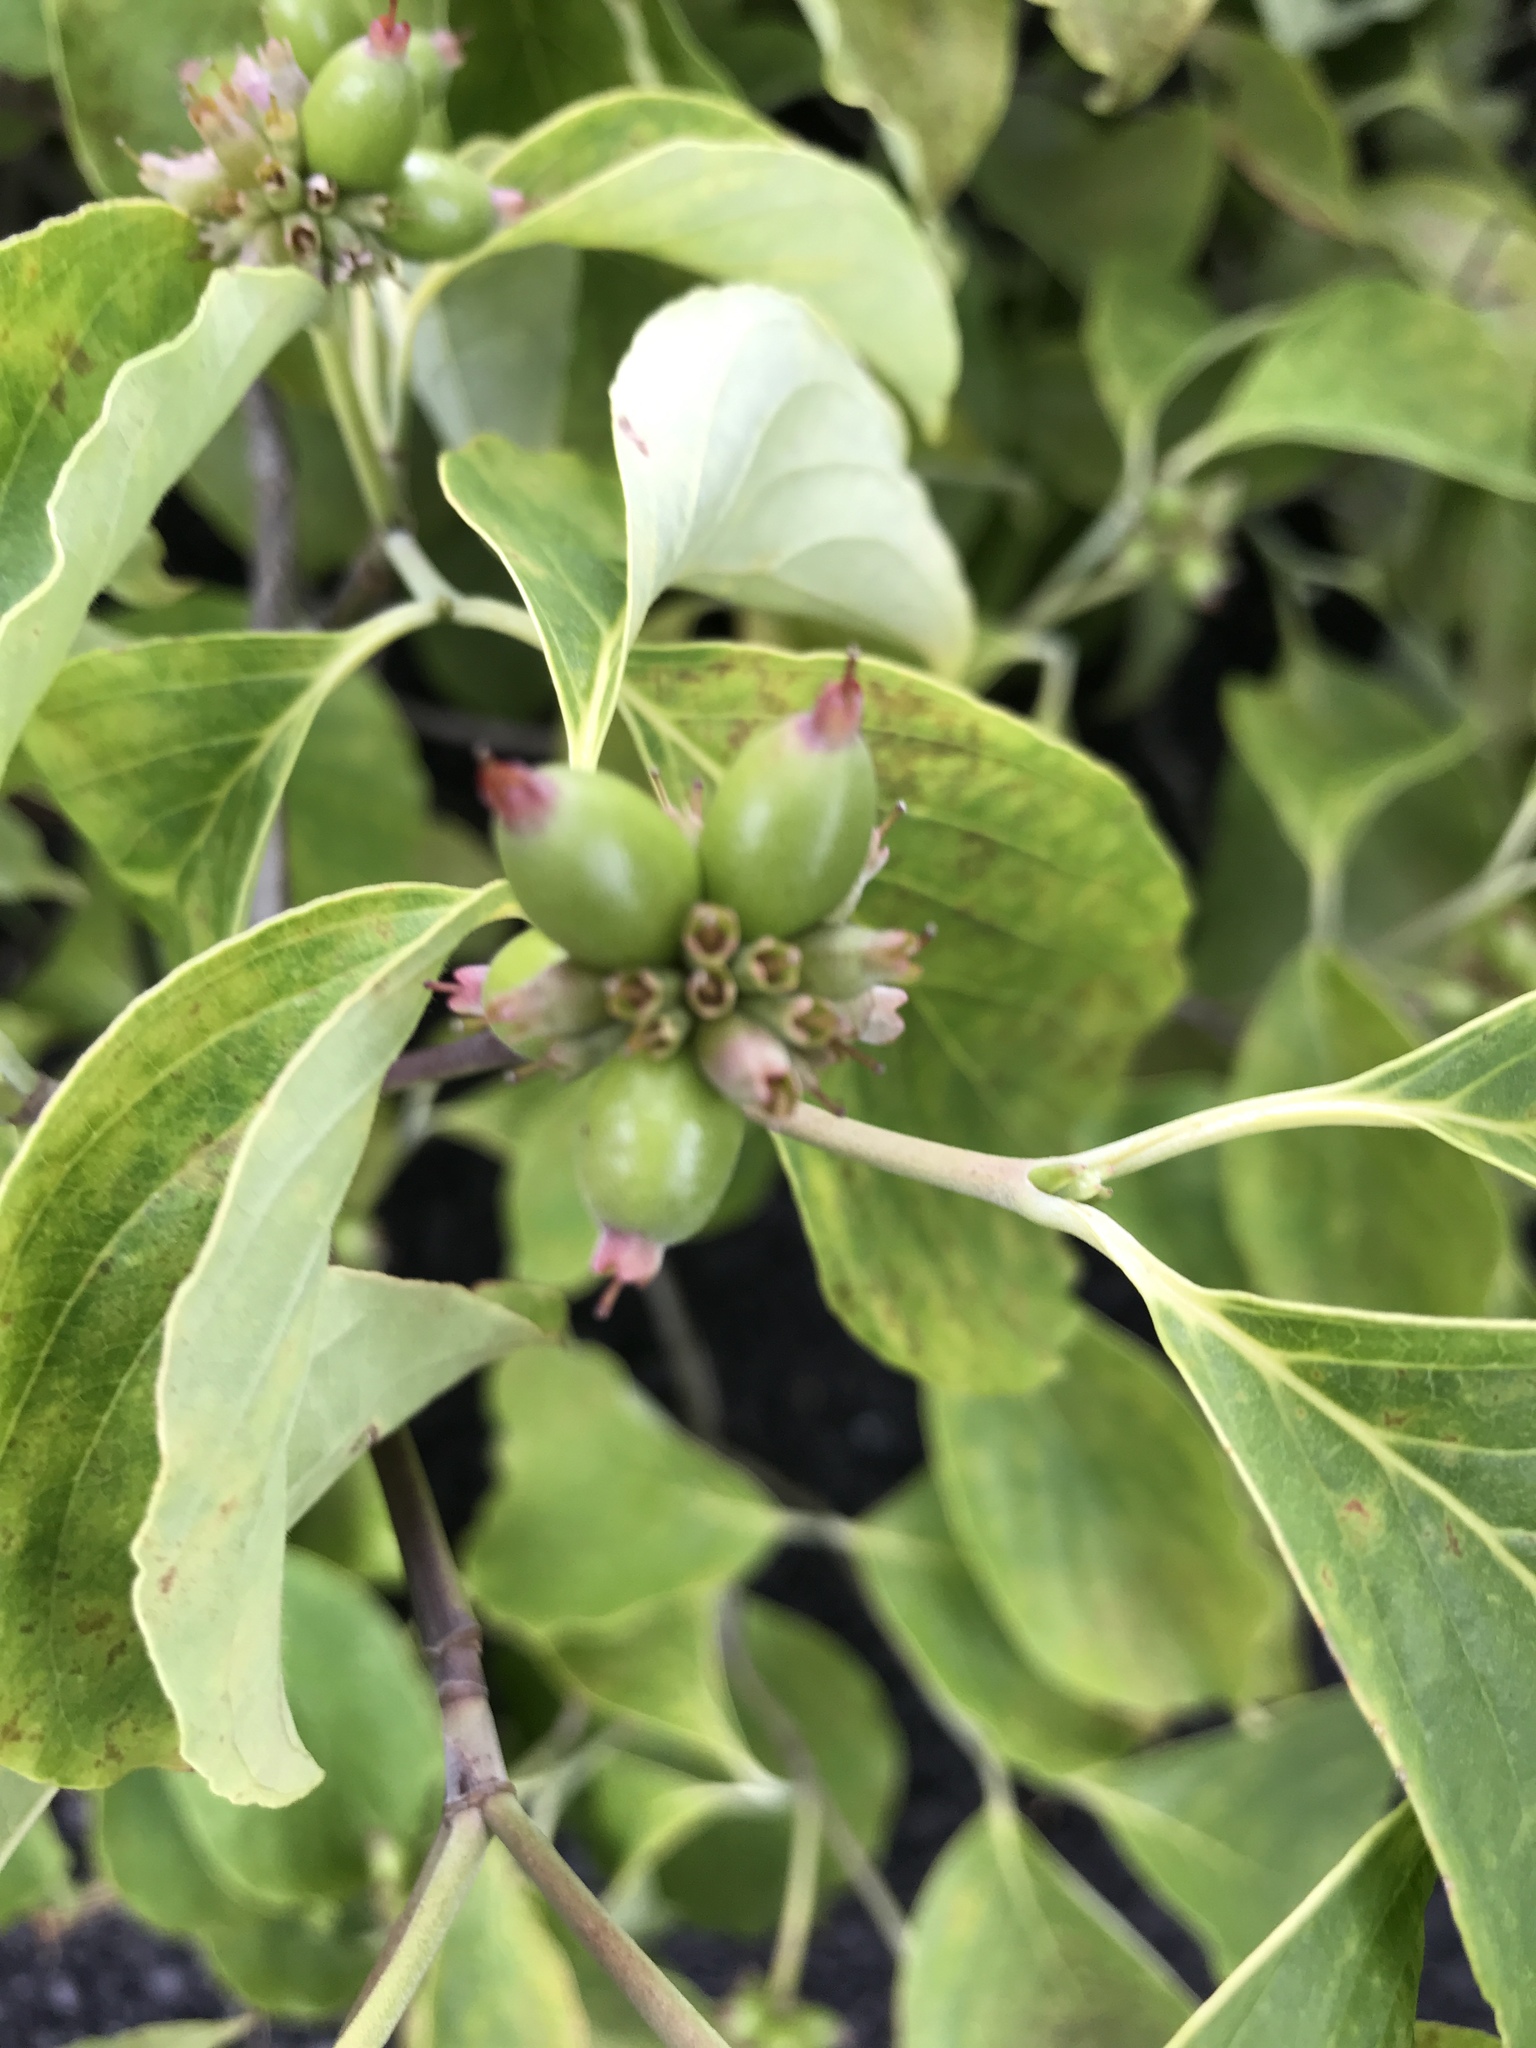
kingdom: Plantae
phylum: Tracheophyta
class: Magnoliopsida
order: Cornales
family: Cornaceae
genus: Cornus
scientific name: Cornus florida
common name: Flowering dogwood
